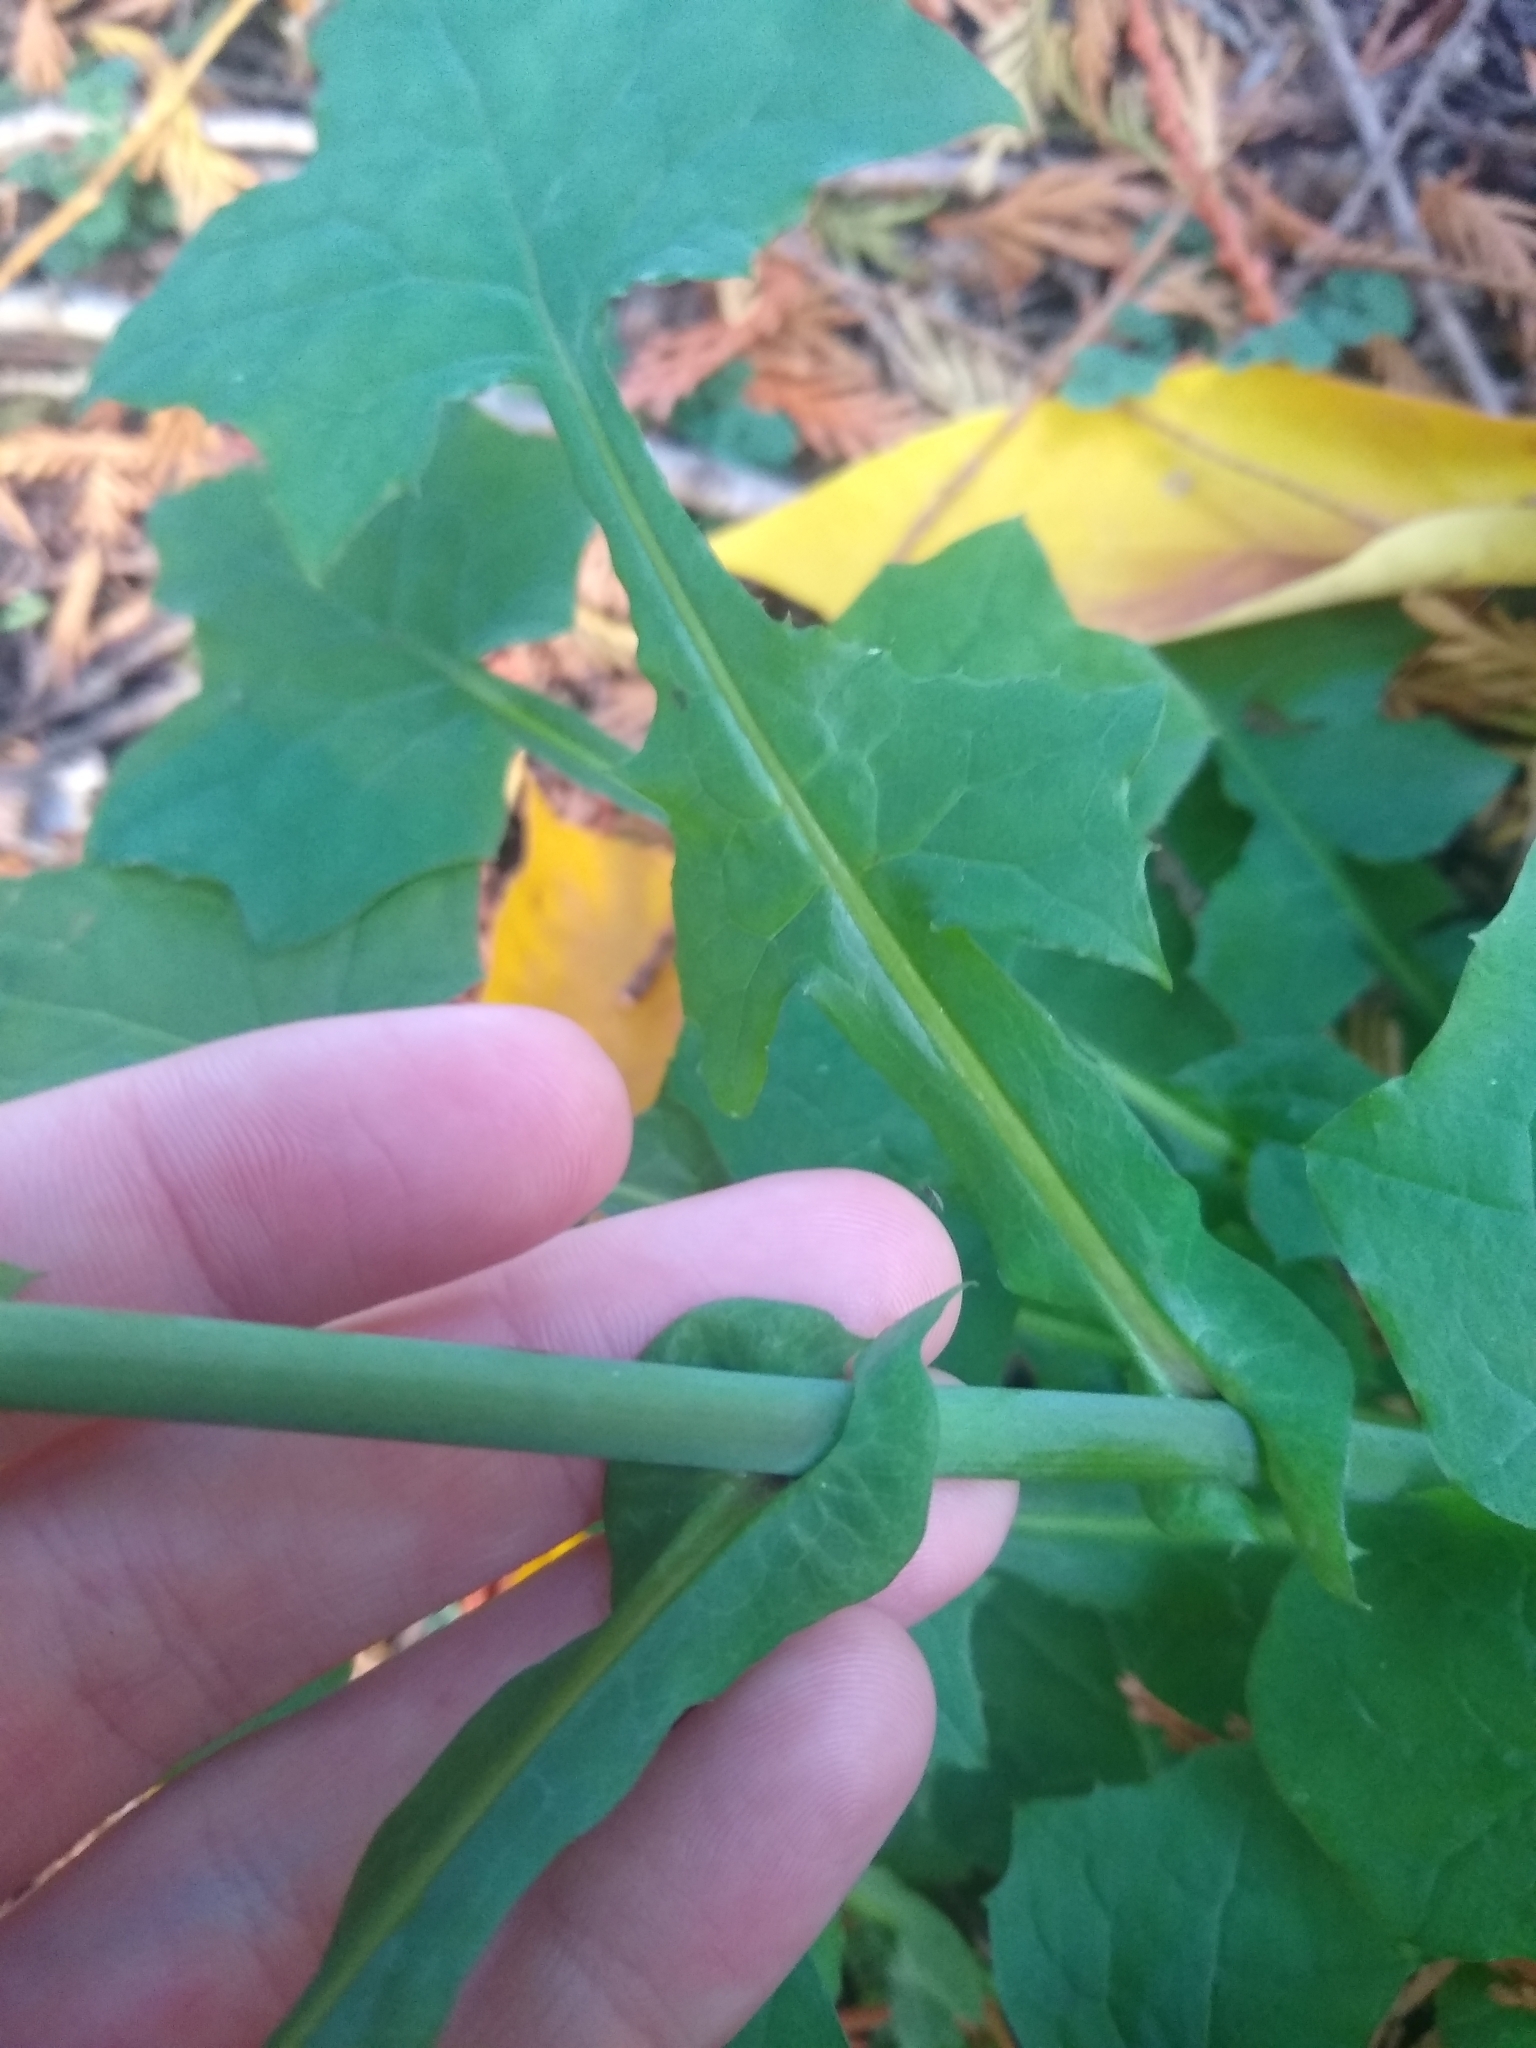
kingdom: Plantae
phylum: Tracheophyta
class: Magnoliopsida
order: Asterales
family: Asteraceae
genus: Mycelis
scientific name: Mycelis muralis
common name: Wall lettuce
